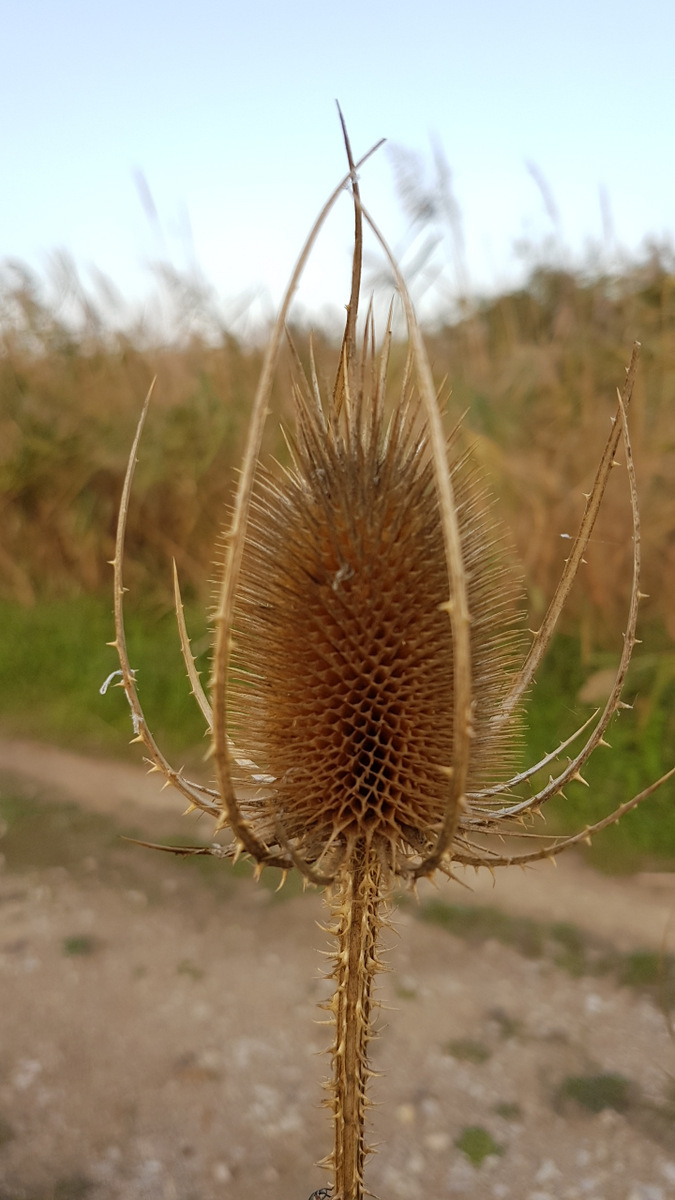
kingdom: Plantae
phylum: Tracheophyta
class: Magnoliopsida
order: Dipsacales
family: Caprifoliaceae
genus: Dipsacus
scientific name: Dipsacus fullonum
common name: Teasel
